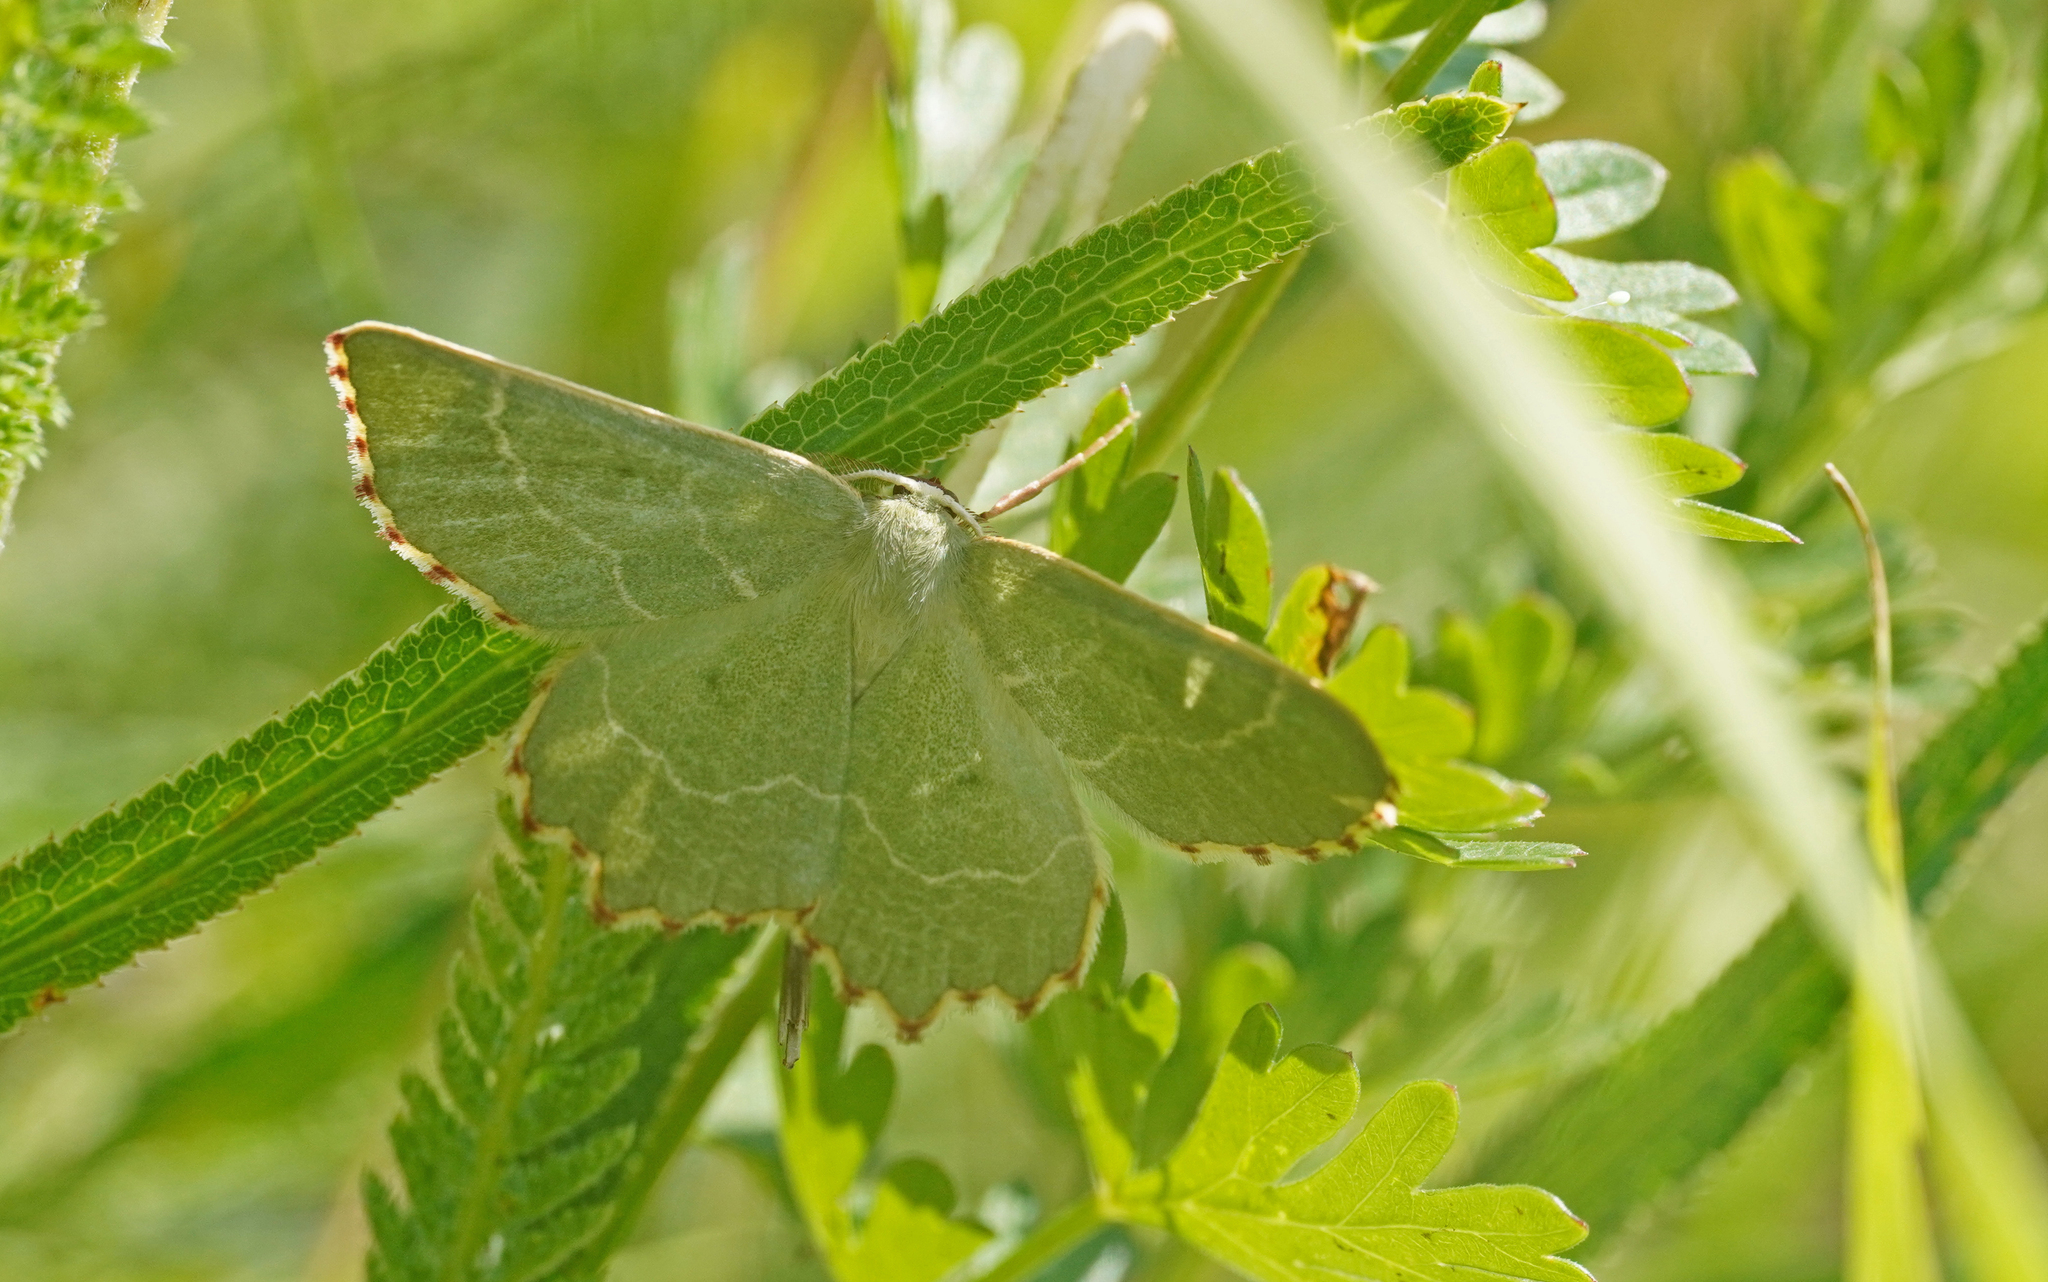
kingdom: Animalia
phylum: Arthropoda
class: Insecta
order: Lepidoptera
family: Geometridae
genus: Thalera
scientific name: Thalera fimbrialis
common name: Sussex emerald
